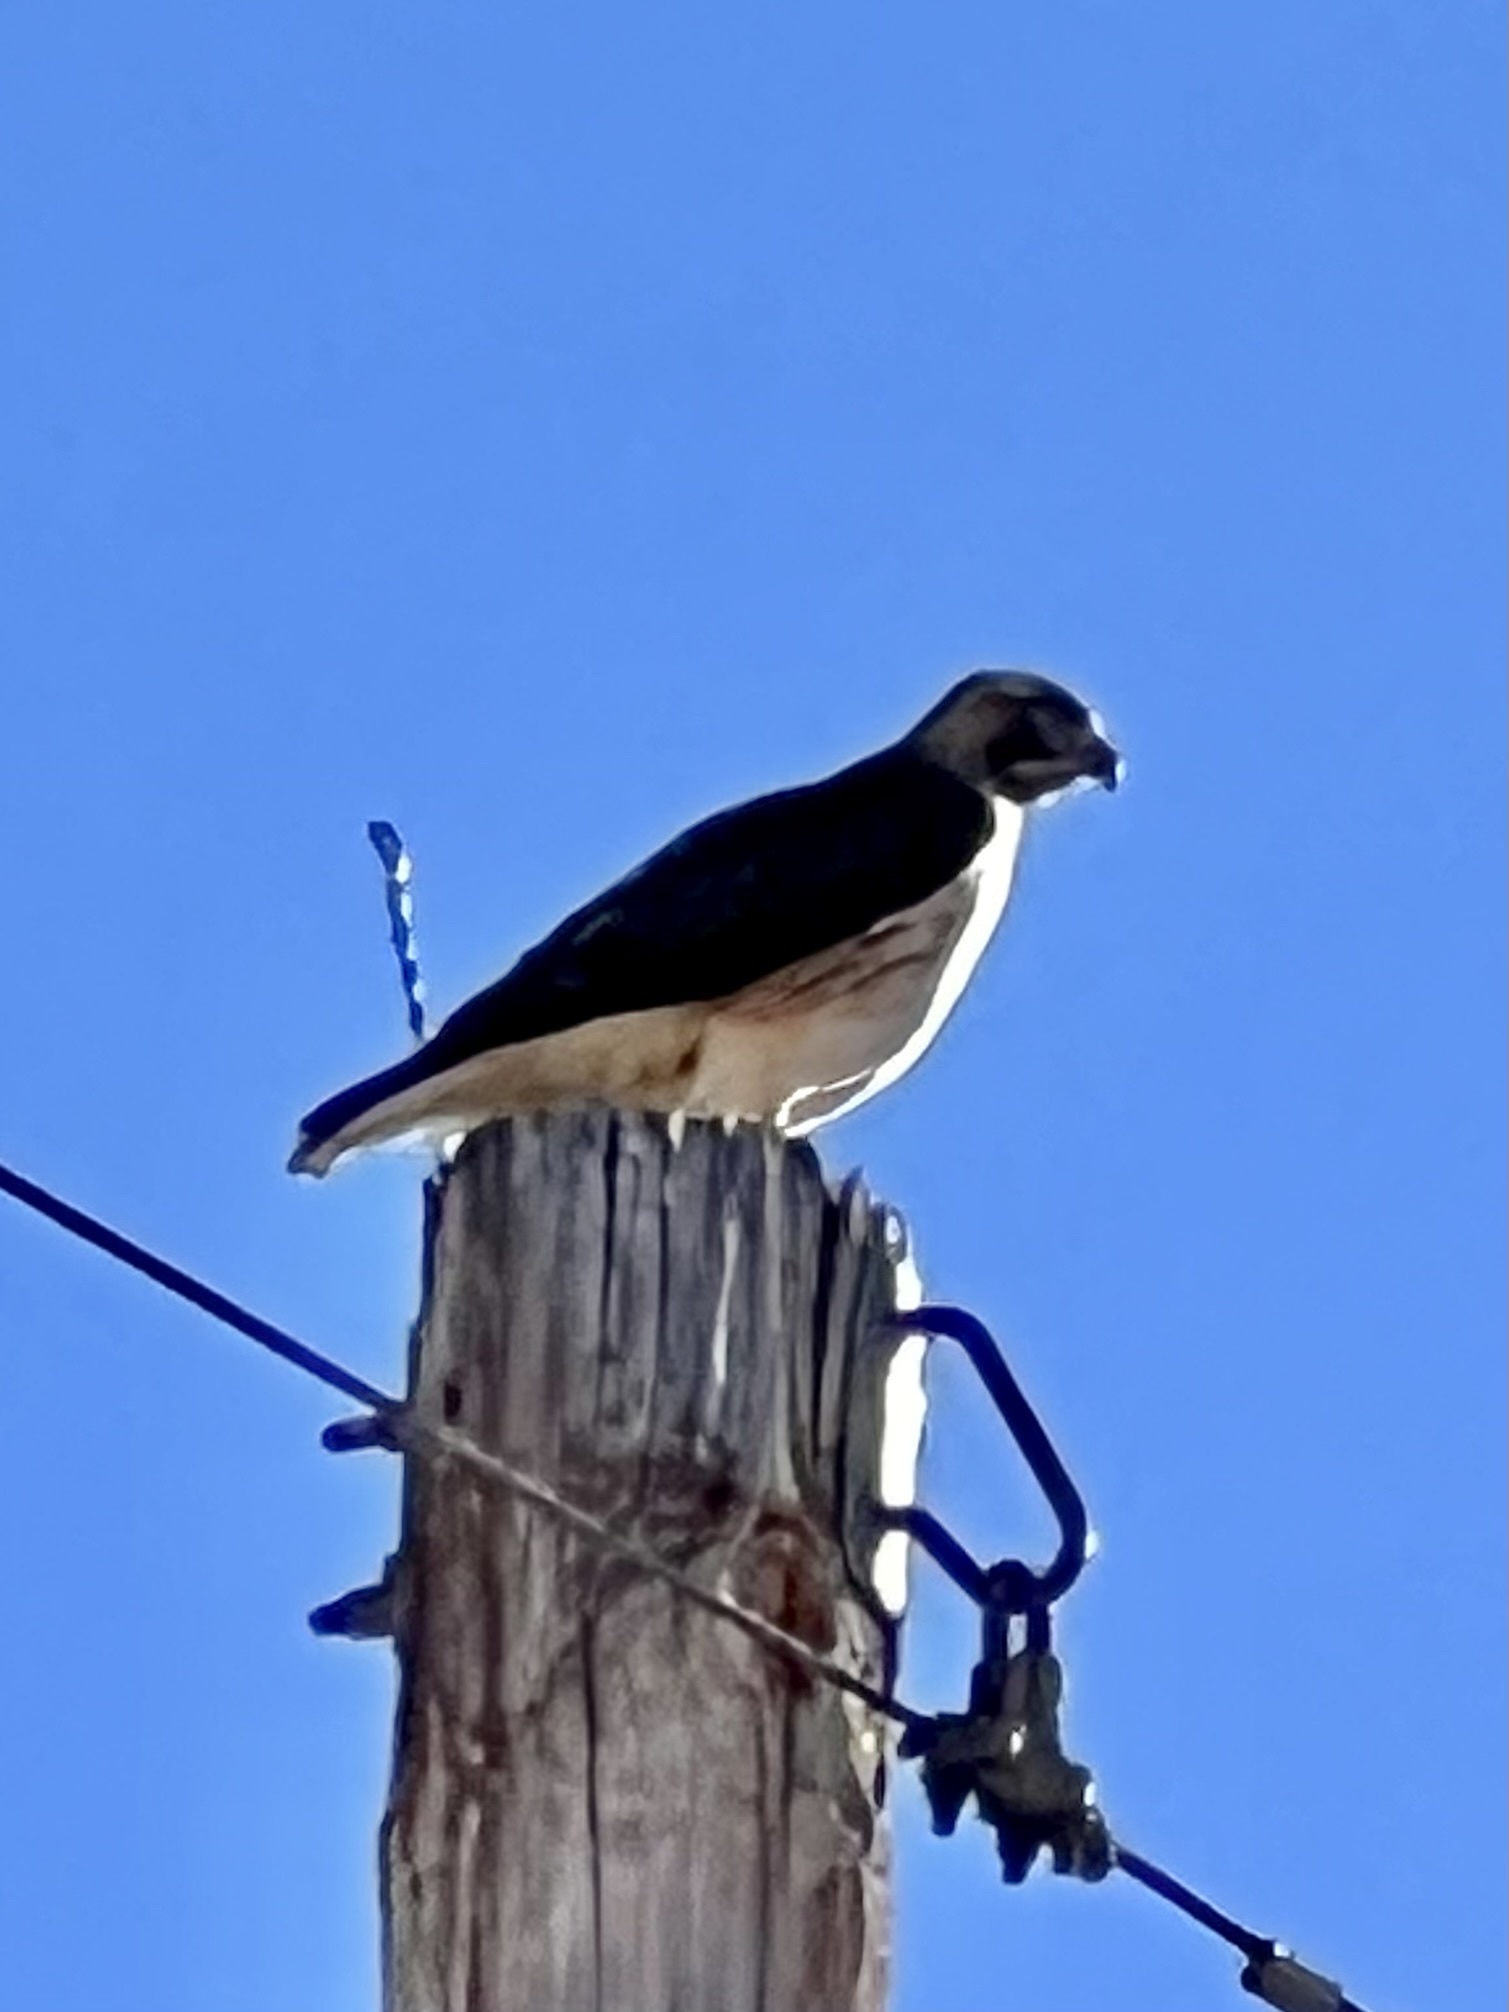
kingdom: Animalia
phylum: Chordata
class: Aves
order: Accipitriformes
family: Accipitridae
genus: Buteo
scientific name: Buteo jamaicensis
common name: Red-tailed hawk
